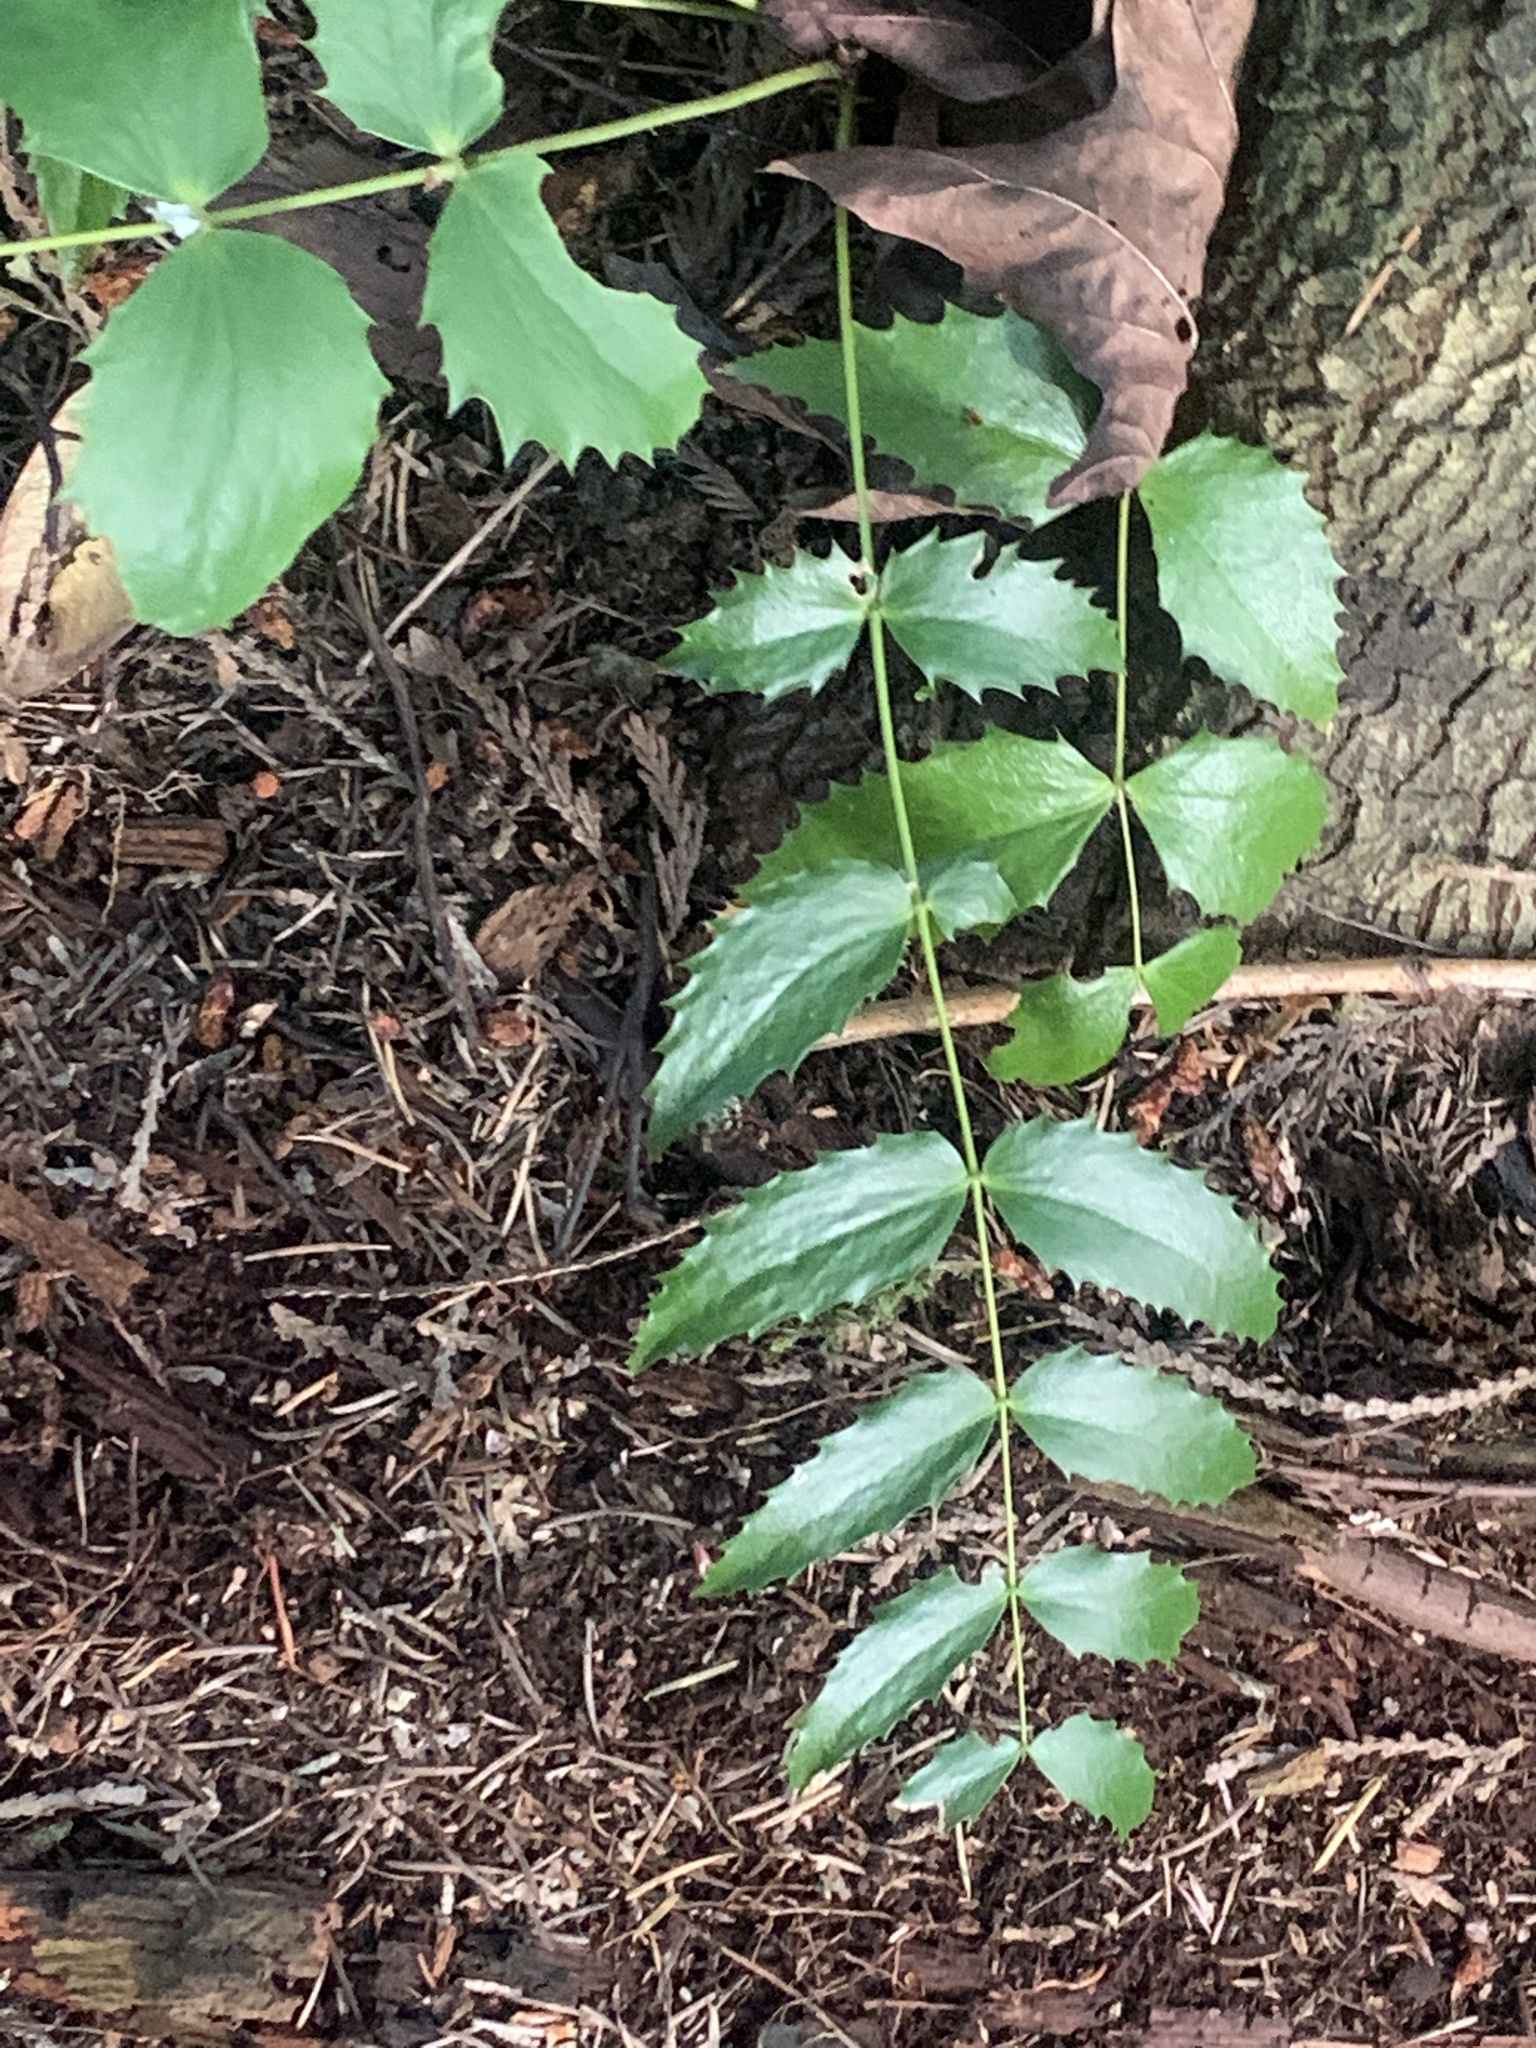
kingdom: Plantae
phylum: Tracheophyta
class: Magnoliopsida
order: Ranunculales
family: Berberidaceae
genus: Mahonia
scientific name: Mahonia nervosa
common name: Cascade oregon-grape
